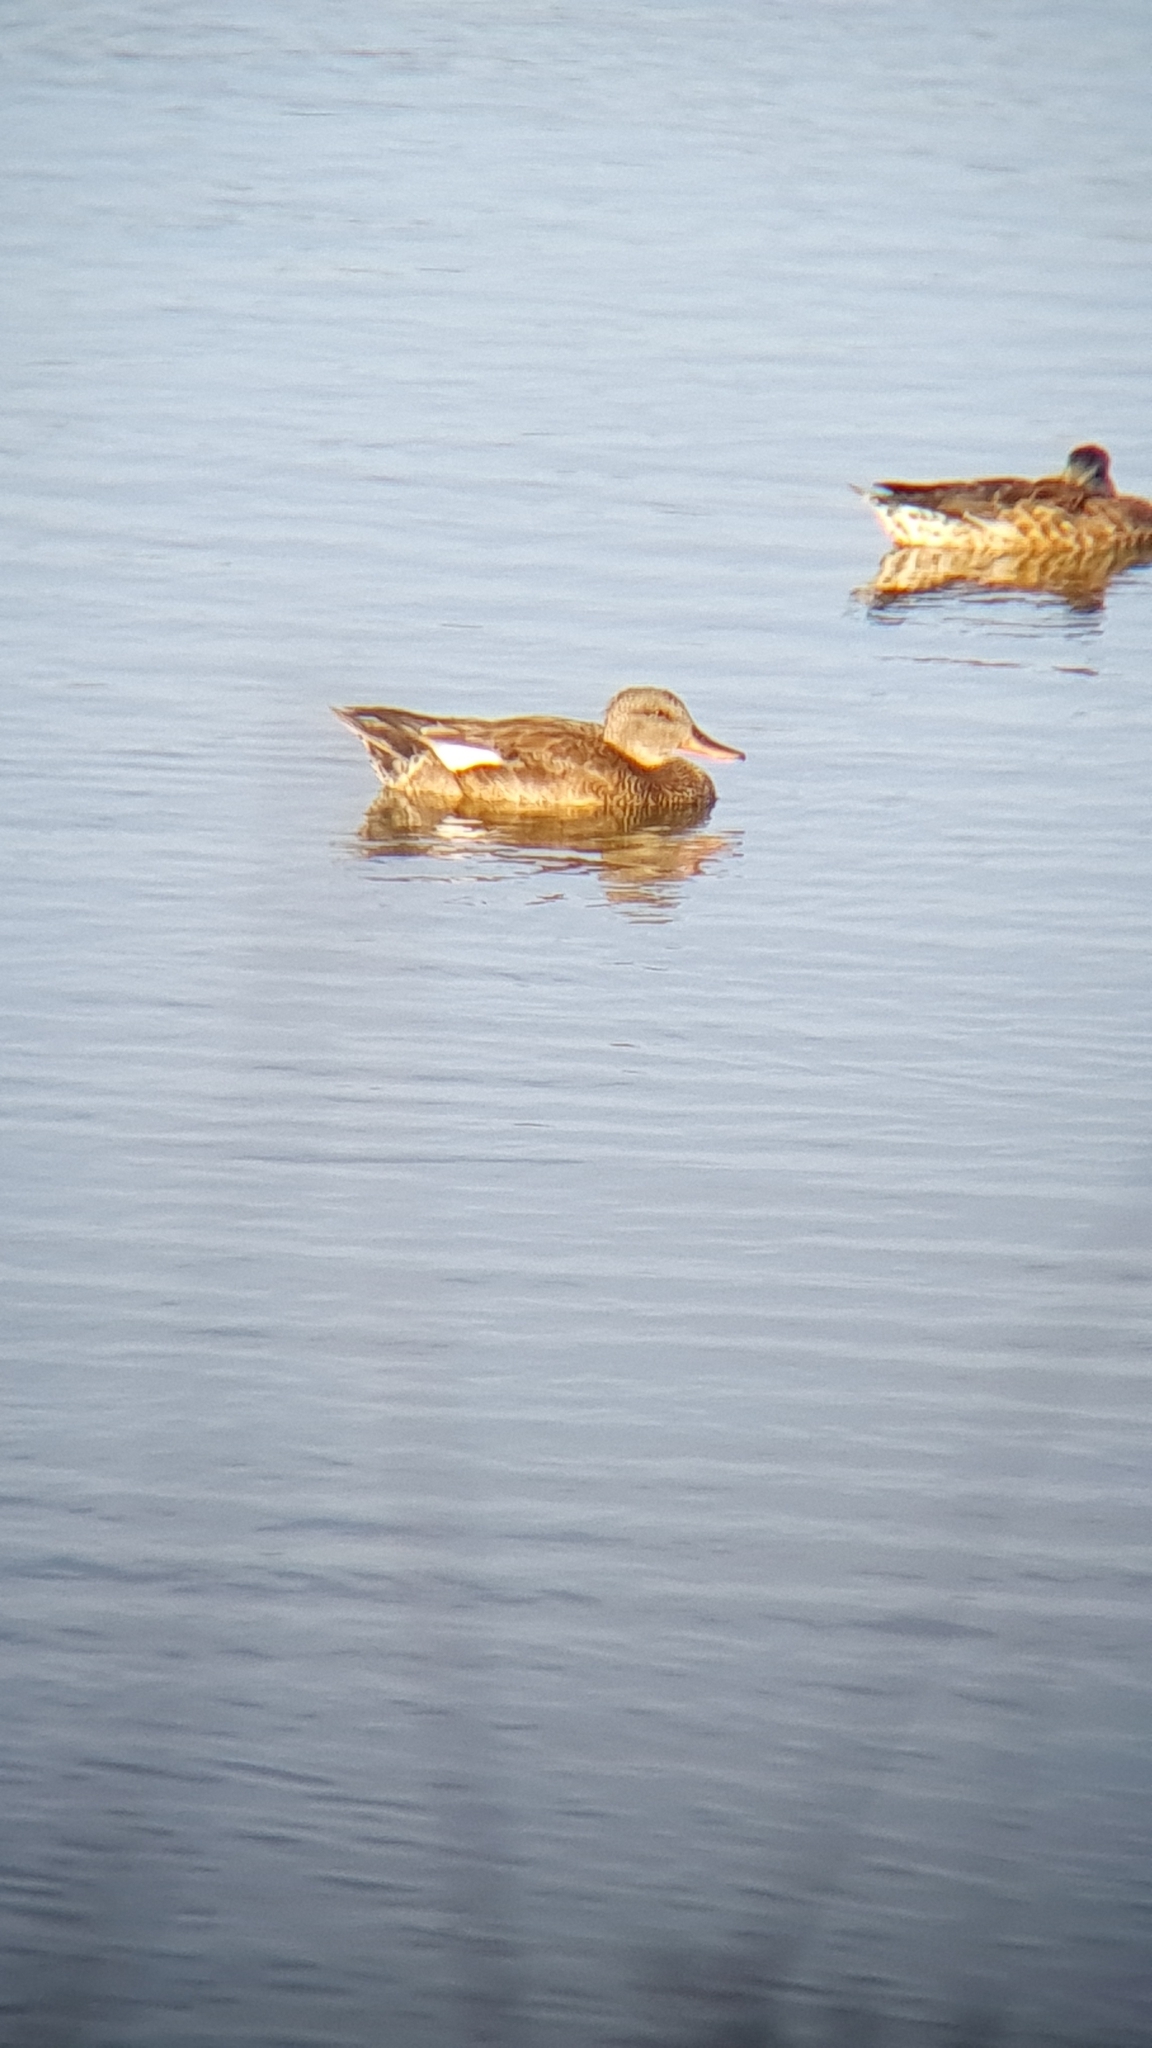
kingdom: Animalia
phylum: Chordata
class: Aves
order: Anseriformes
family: Anatidae
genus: Mareca
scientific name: Mareca strepera
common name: Gadwall
